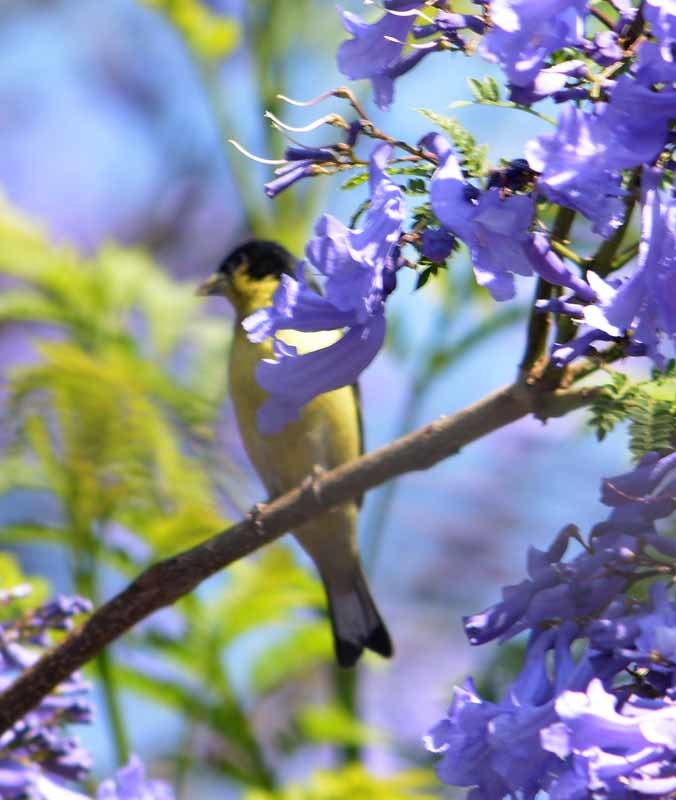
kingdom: Animalia
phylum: Chordata
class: Aves
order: Passeriformes
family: Fringillidae
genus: Spinus
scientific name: Spinus psaltria
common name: Lesser goldfinch
